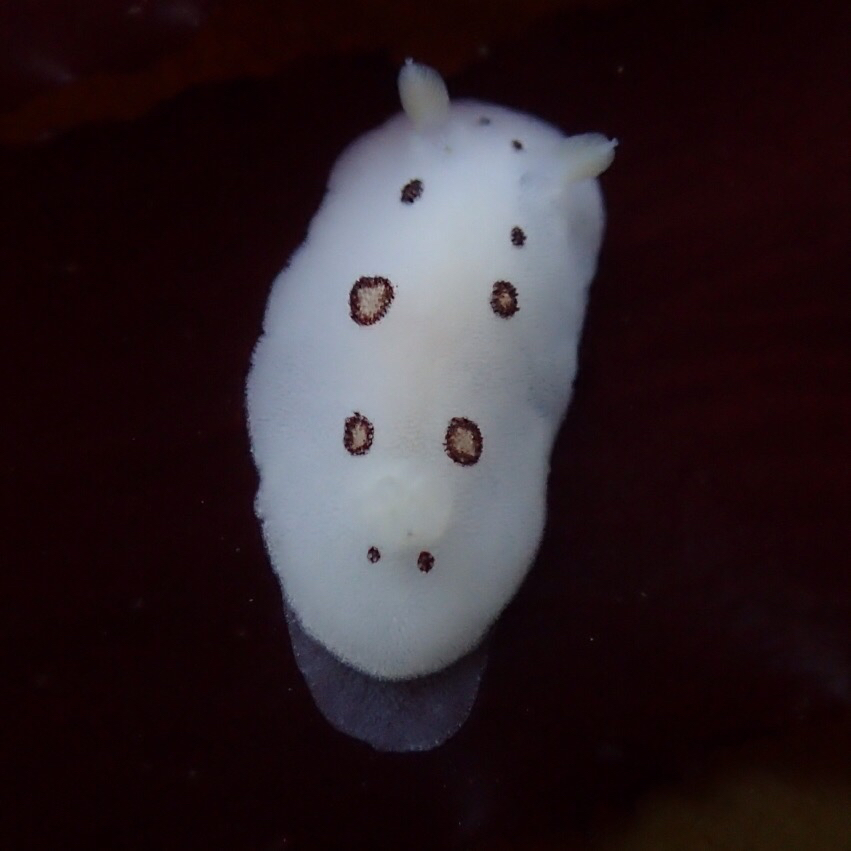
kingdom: Animalia
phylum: Mollusca
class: Gastropoda
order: Nudibranchia
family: Discodorididae
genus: Diaulula
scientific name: Diaulula sandiegensis
